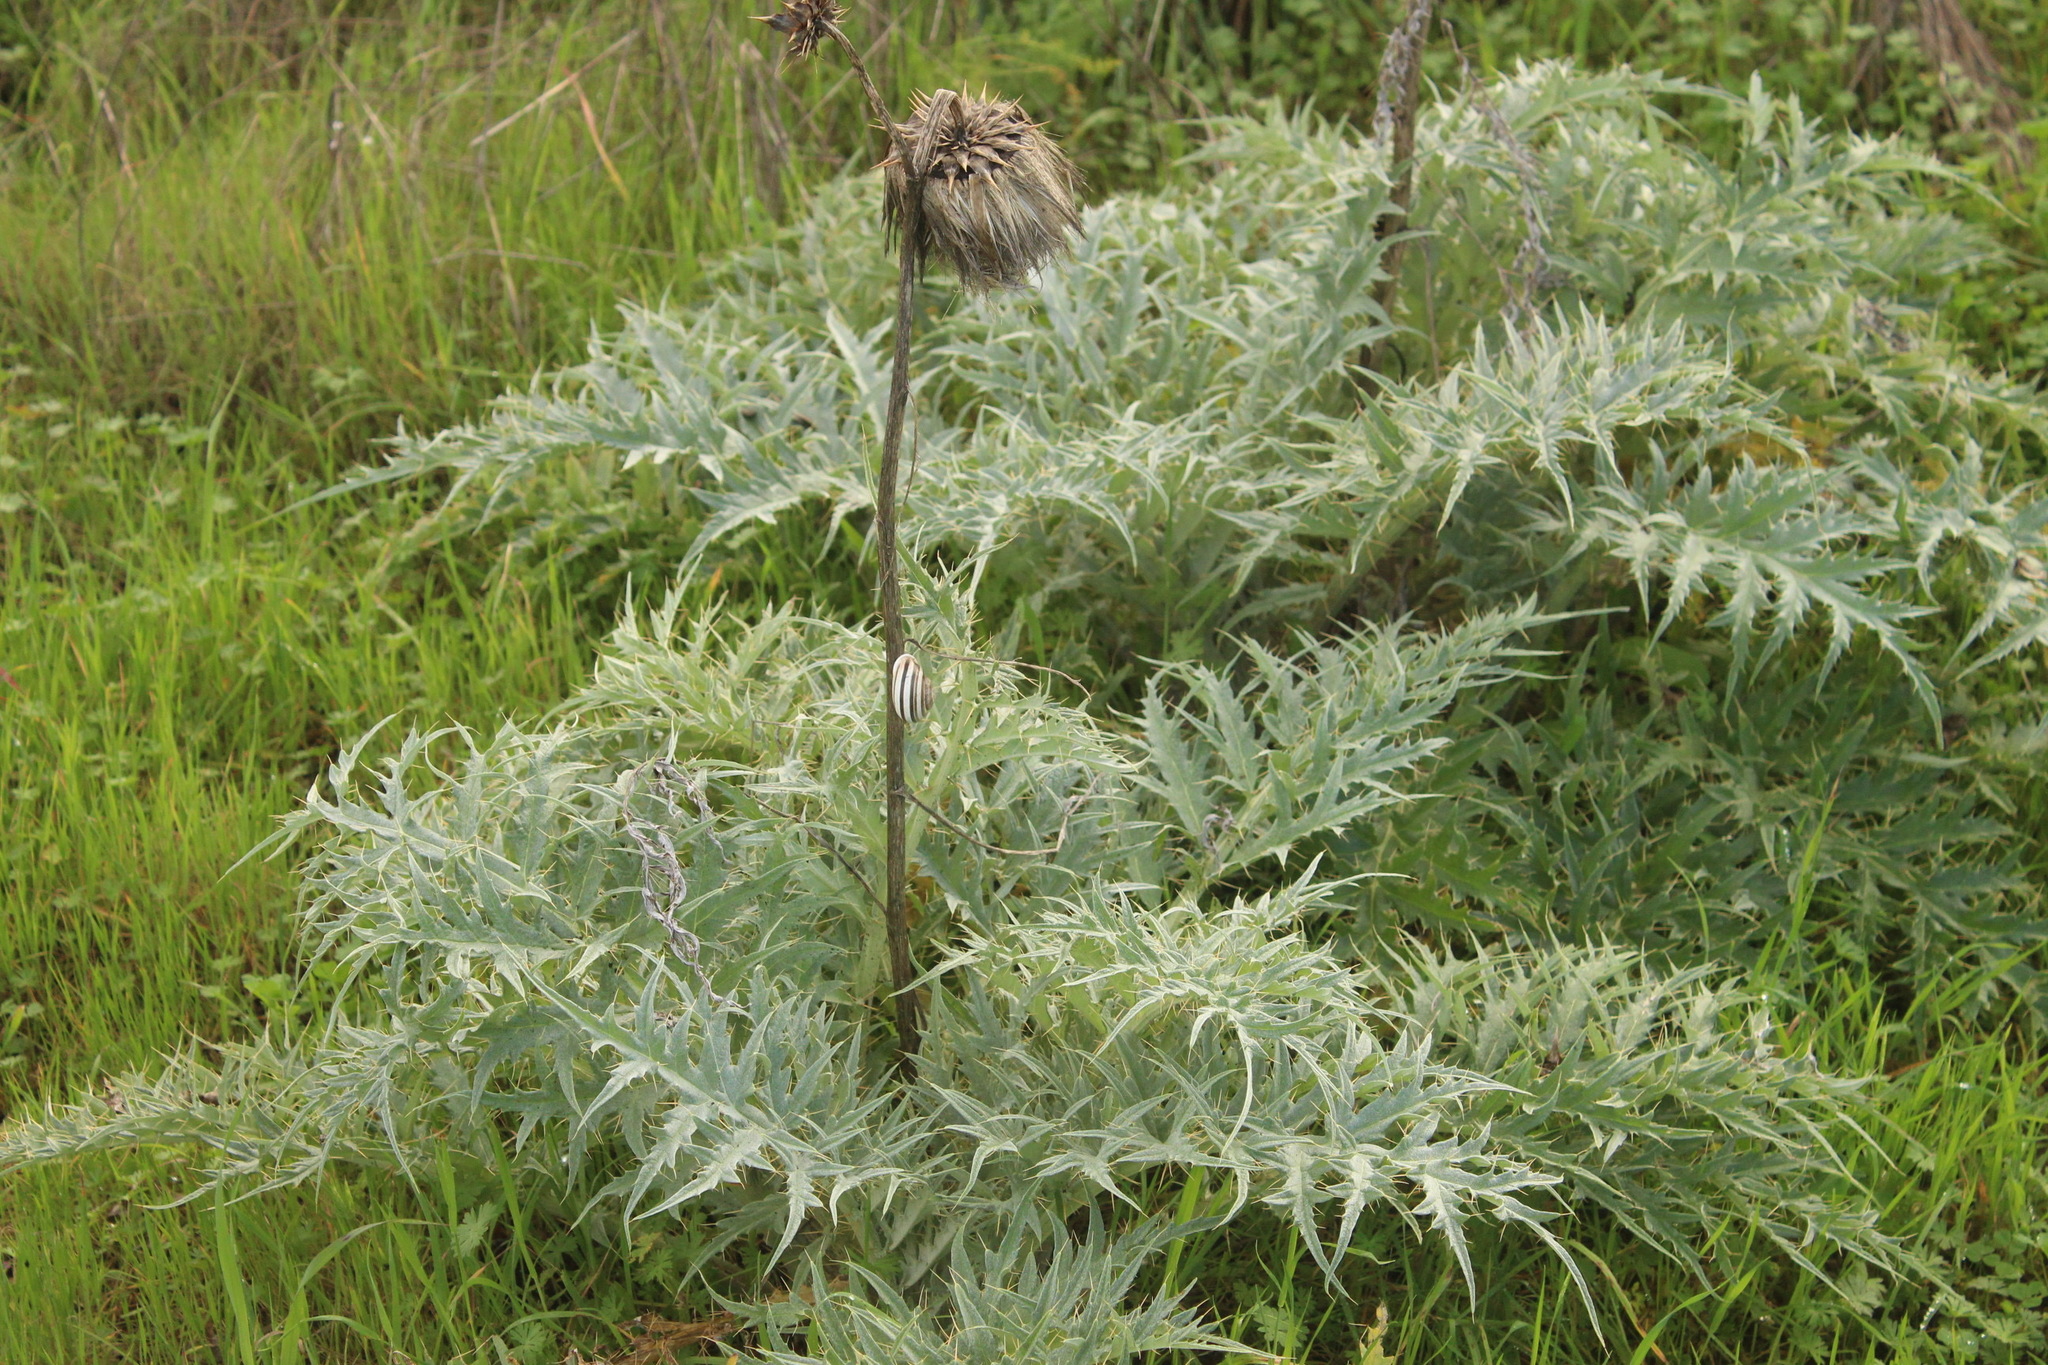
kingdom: Plantae
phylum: Tracheophyta
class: Magnoliopsida
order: Asterales
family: Asteraceae
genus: Cynara
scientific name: Cynara cardunculus
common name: Globe artichoke
